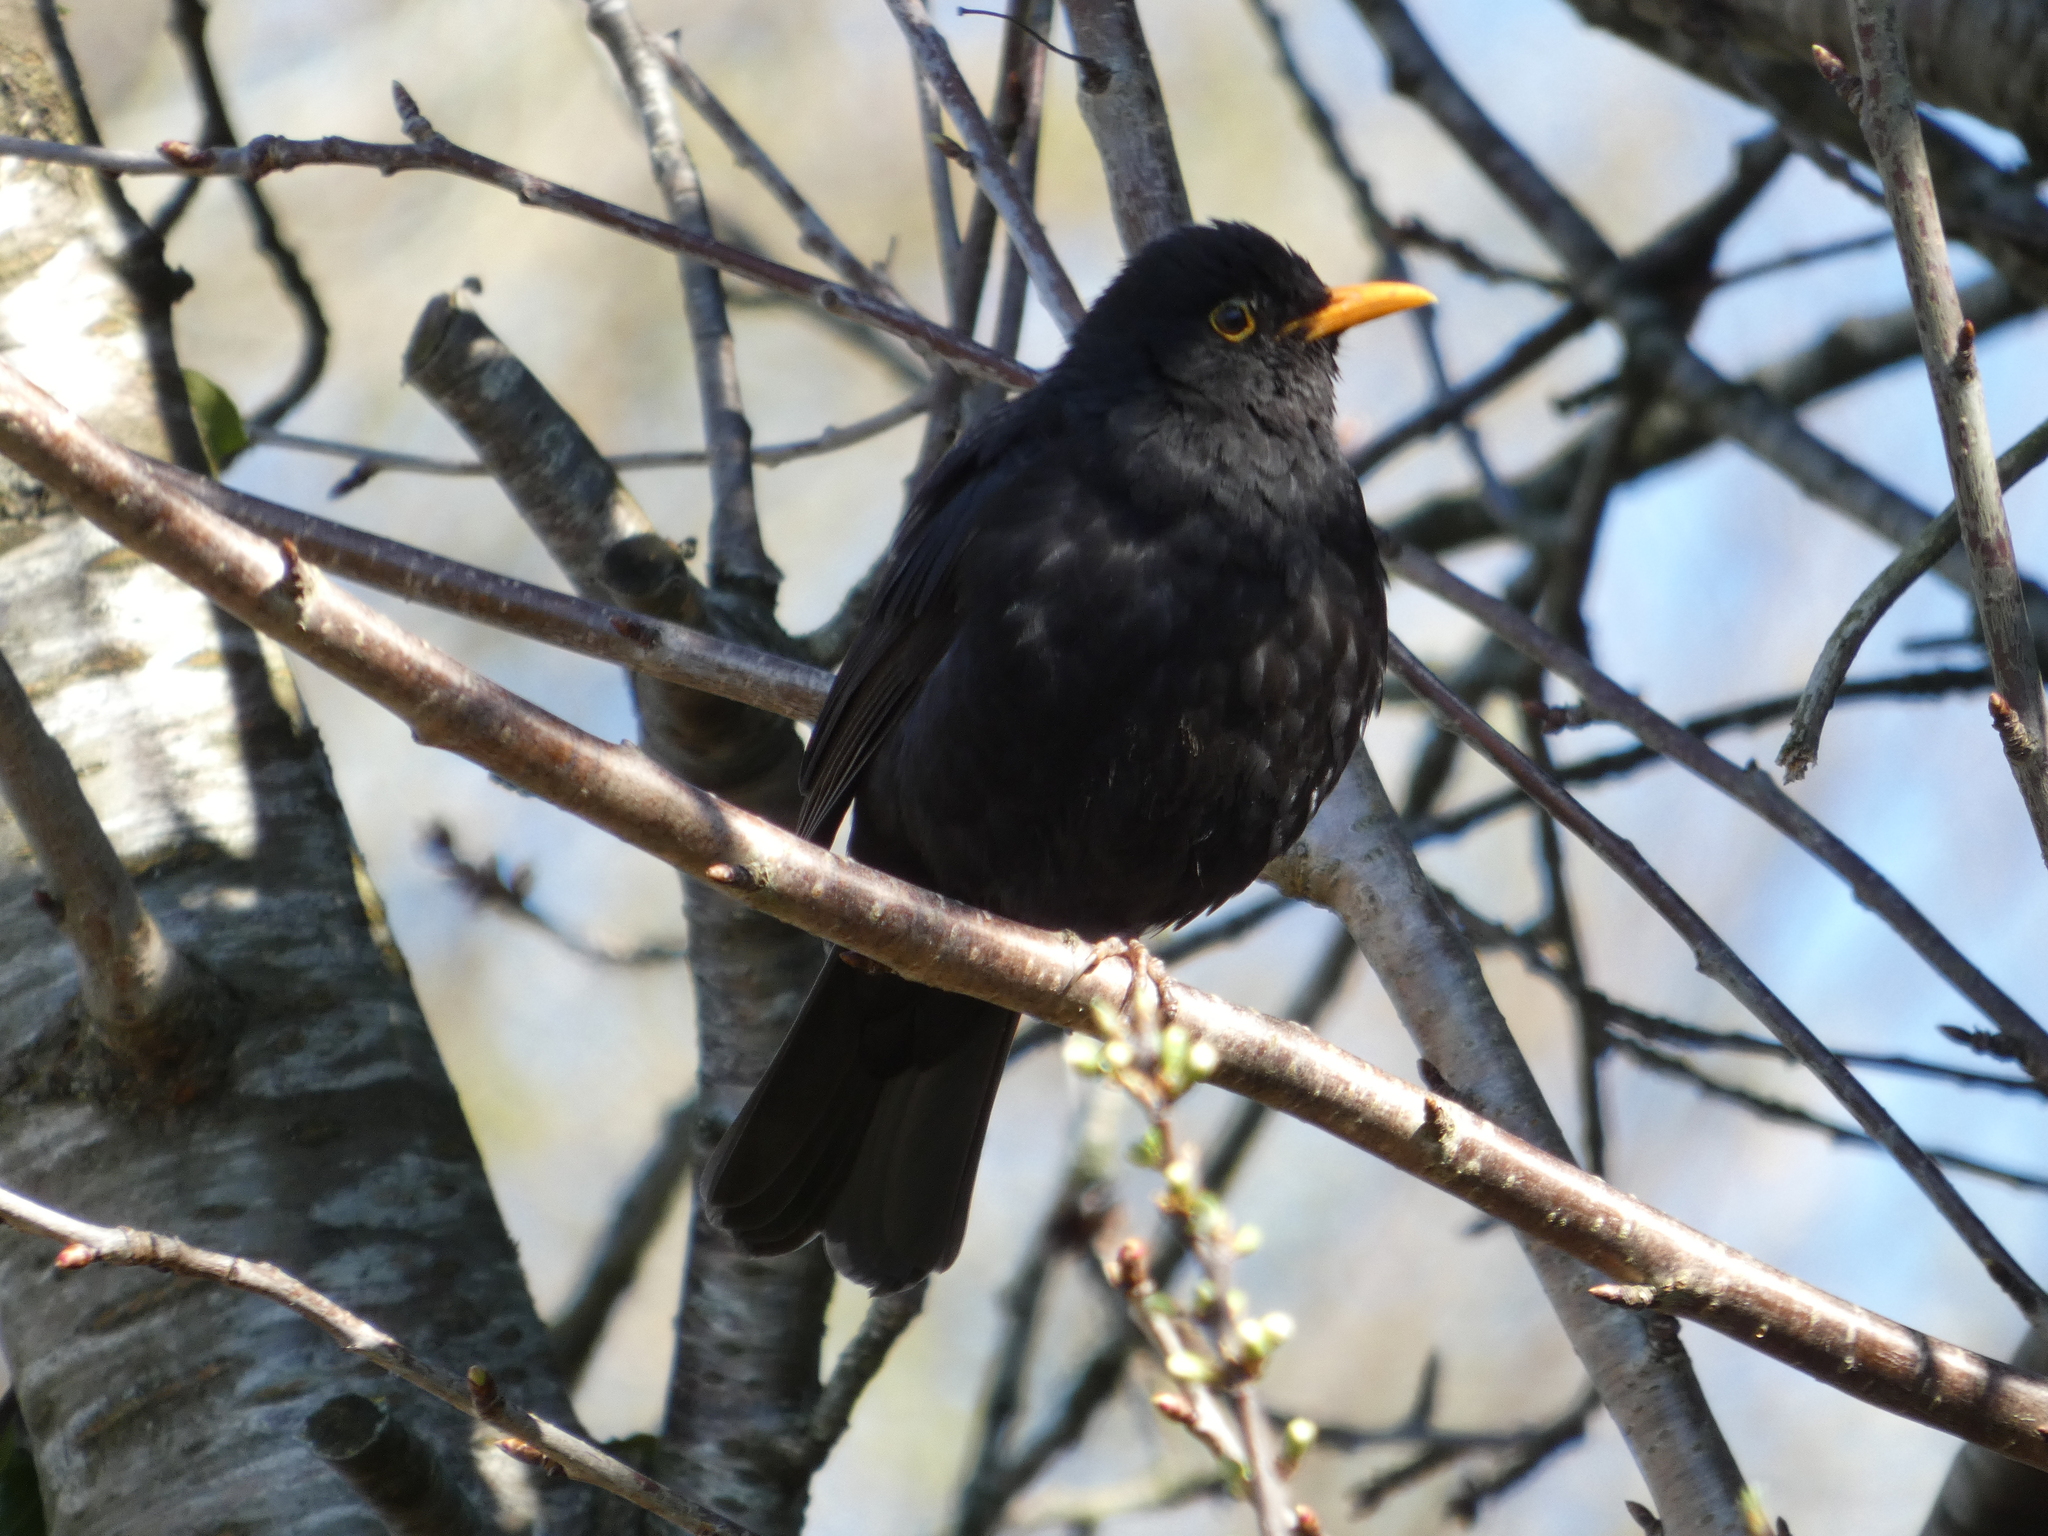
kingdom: Animalia
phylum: Chordata
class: Aves
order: Passeriformes
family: Turdidae
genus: Turdus
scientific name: Turdus merula
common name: Common blackbird
